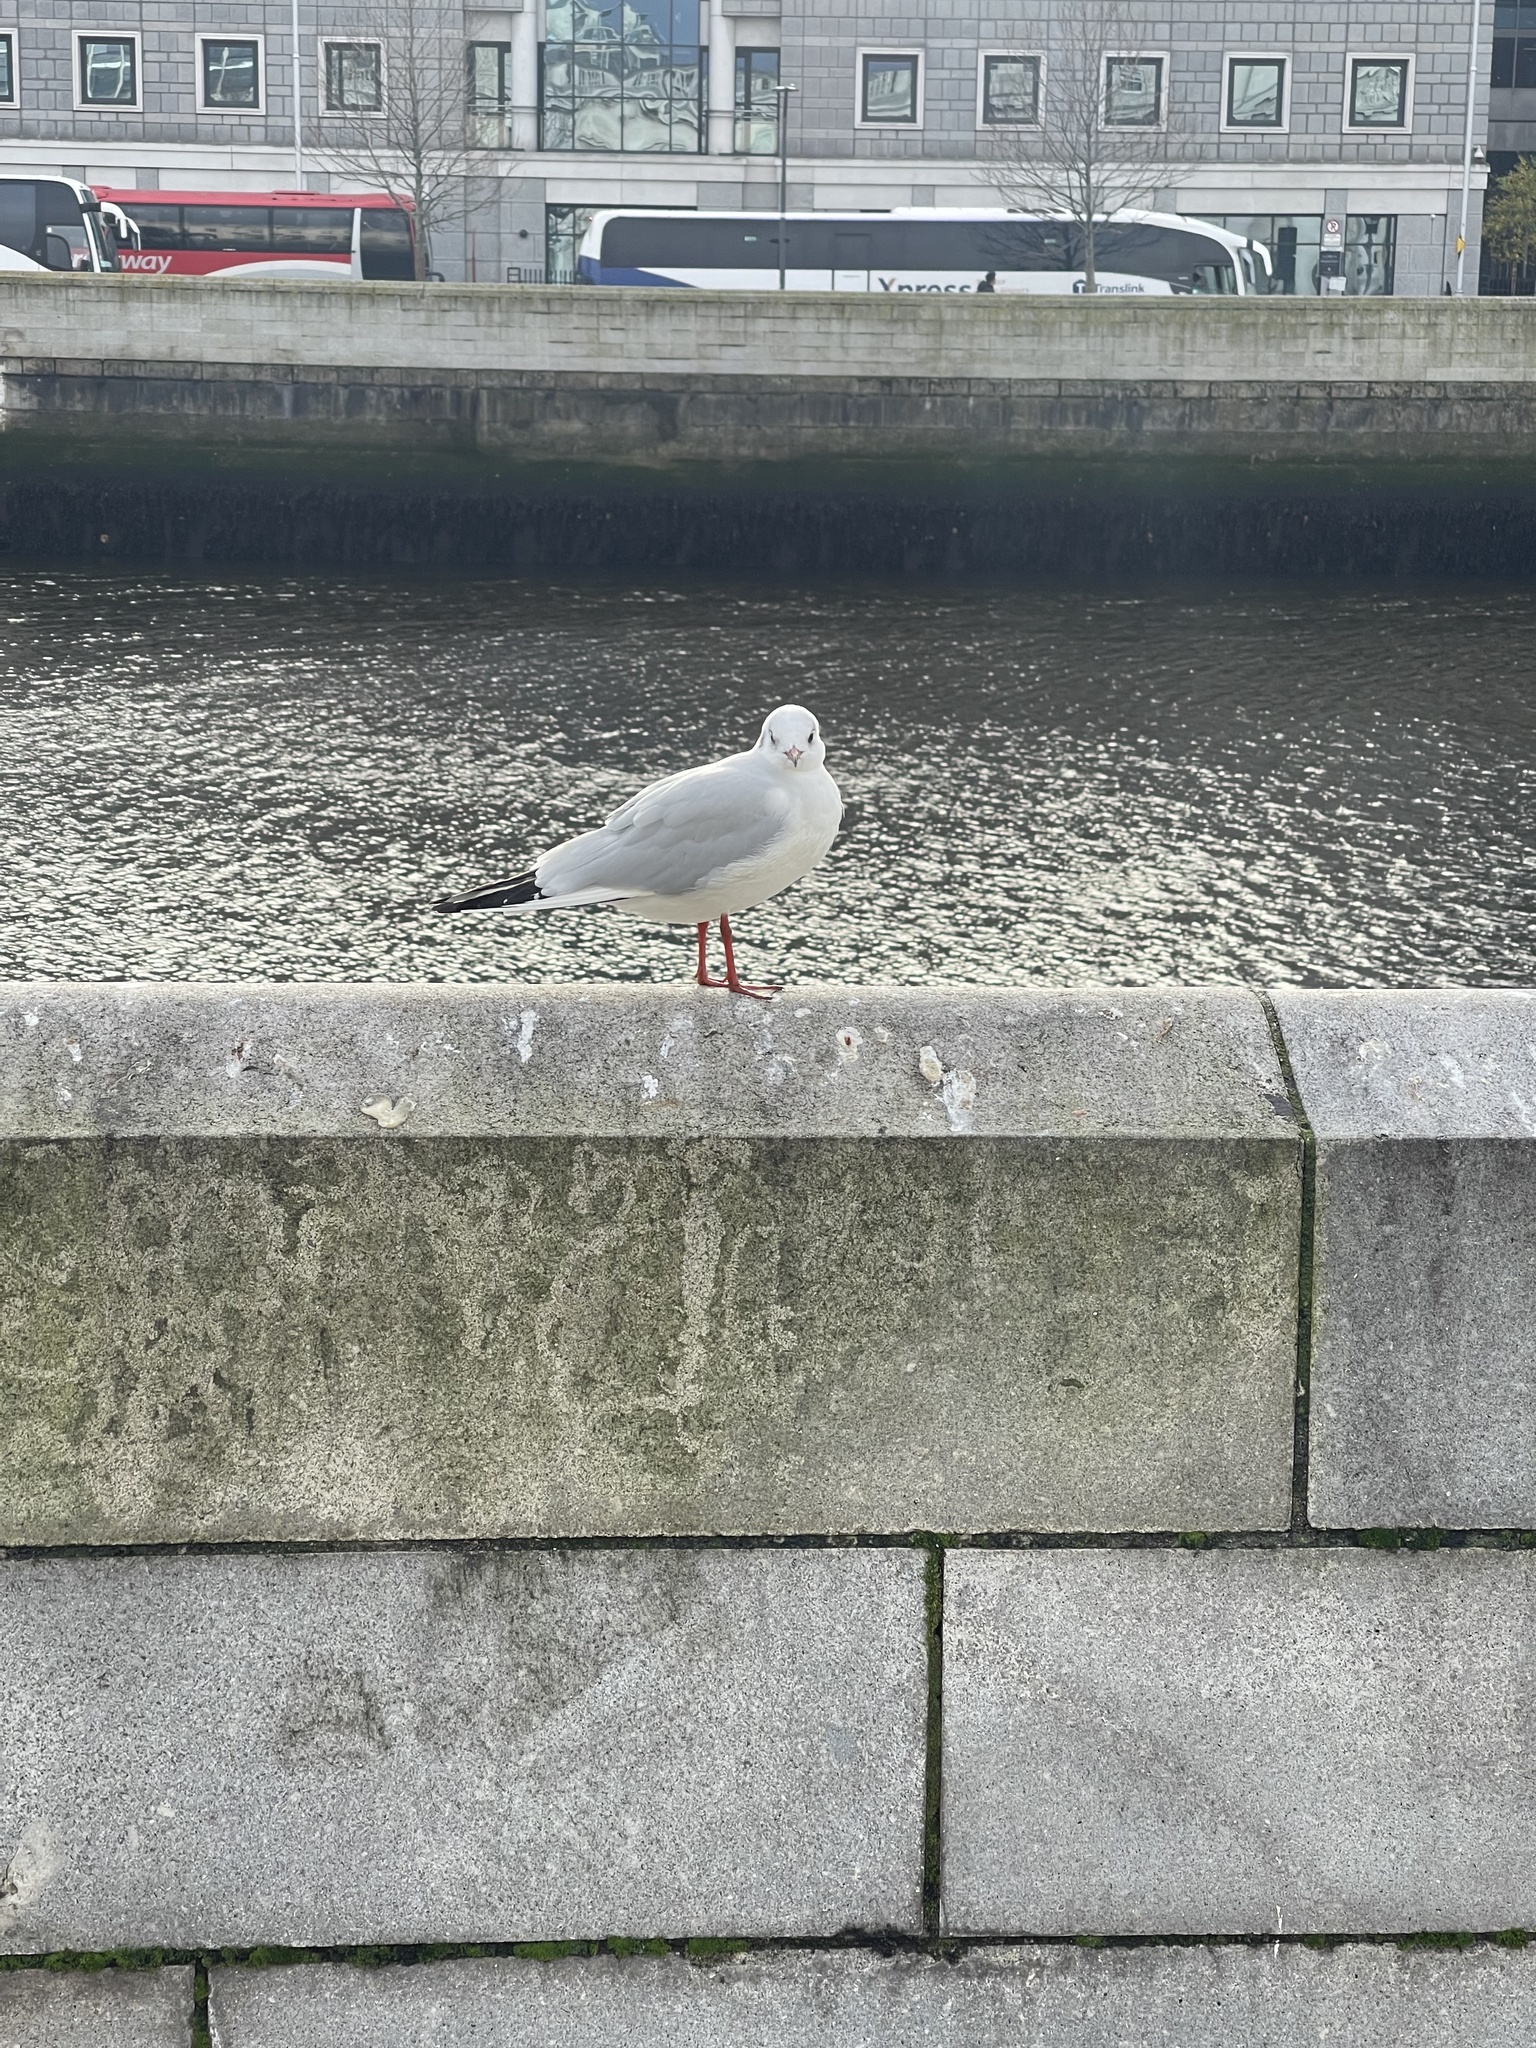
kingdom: Animalia
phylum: Chordata
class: Aves
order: Charadriiformes
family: Laridae
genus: Chroicocephalus
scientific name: Chroicocephalus ridibundus
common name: Black-headed gull
